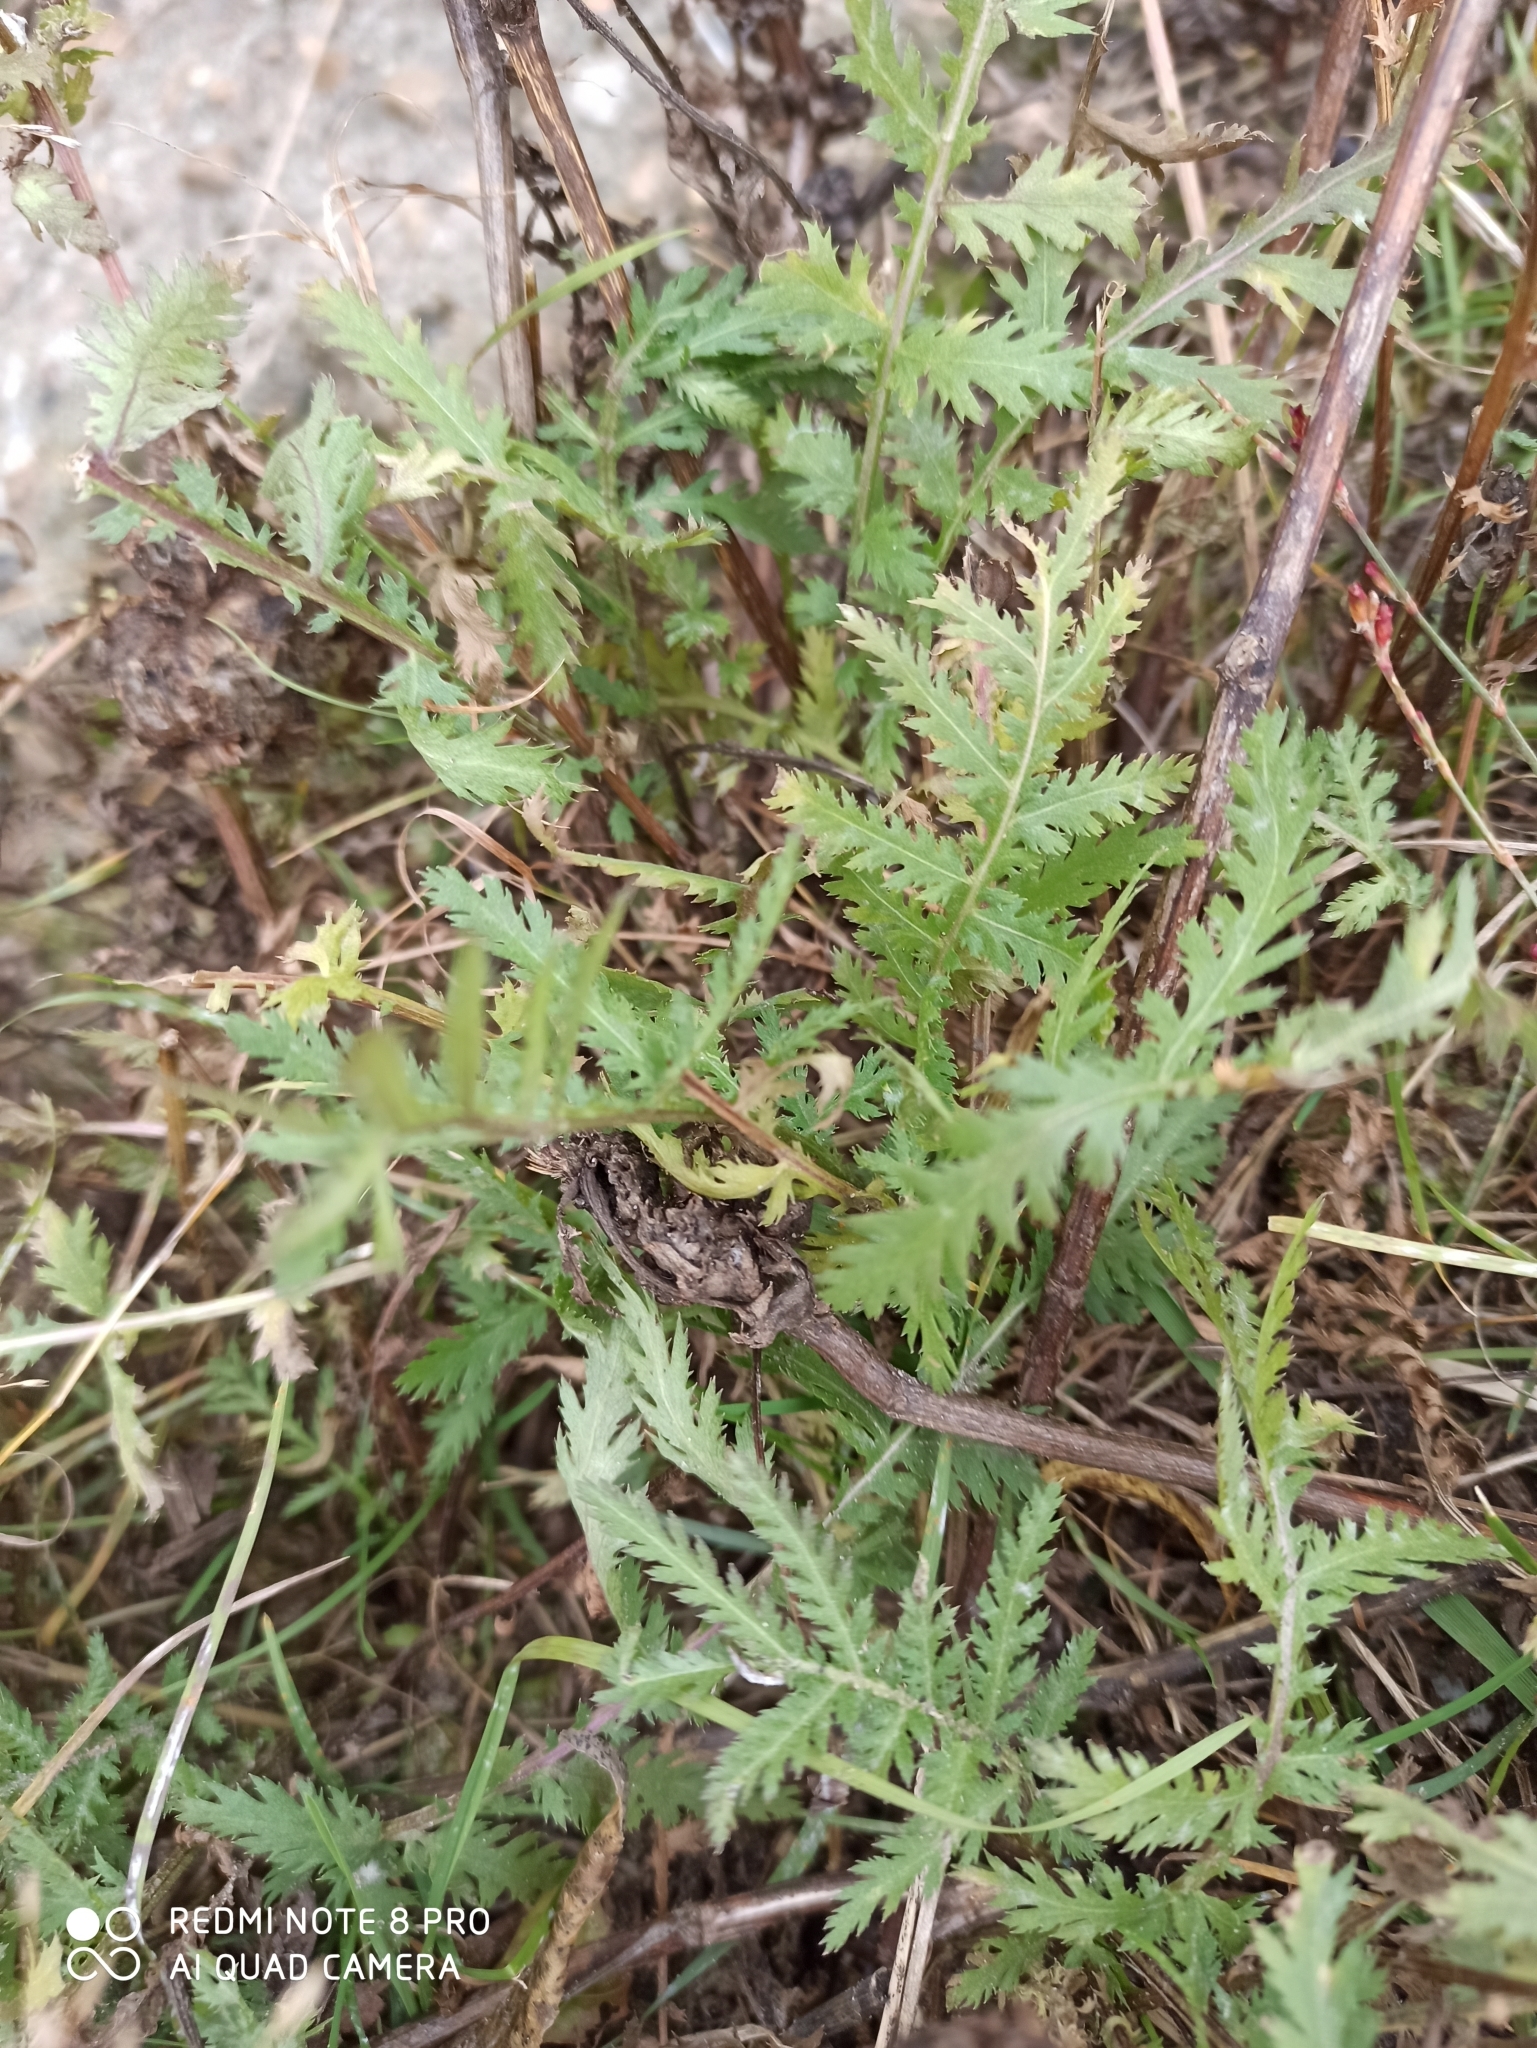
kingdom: Plantae
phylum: Tracheophyta
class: Magnoliopsida
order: Asterales
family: Asteraceae
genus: Tanacetum
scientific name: Tanacetum vulgare
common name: Common tansy
